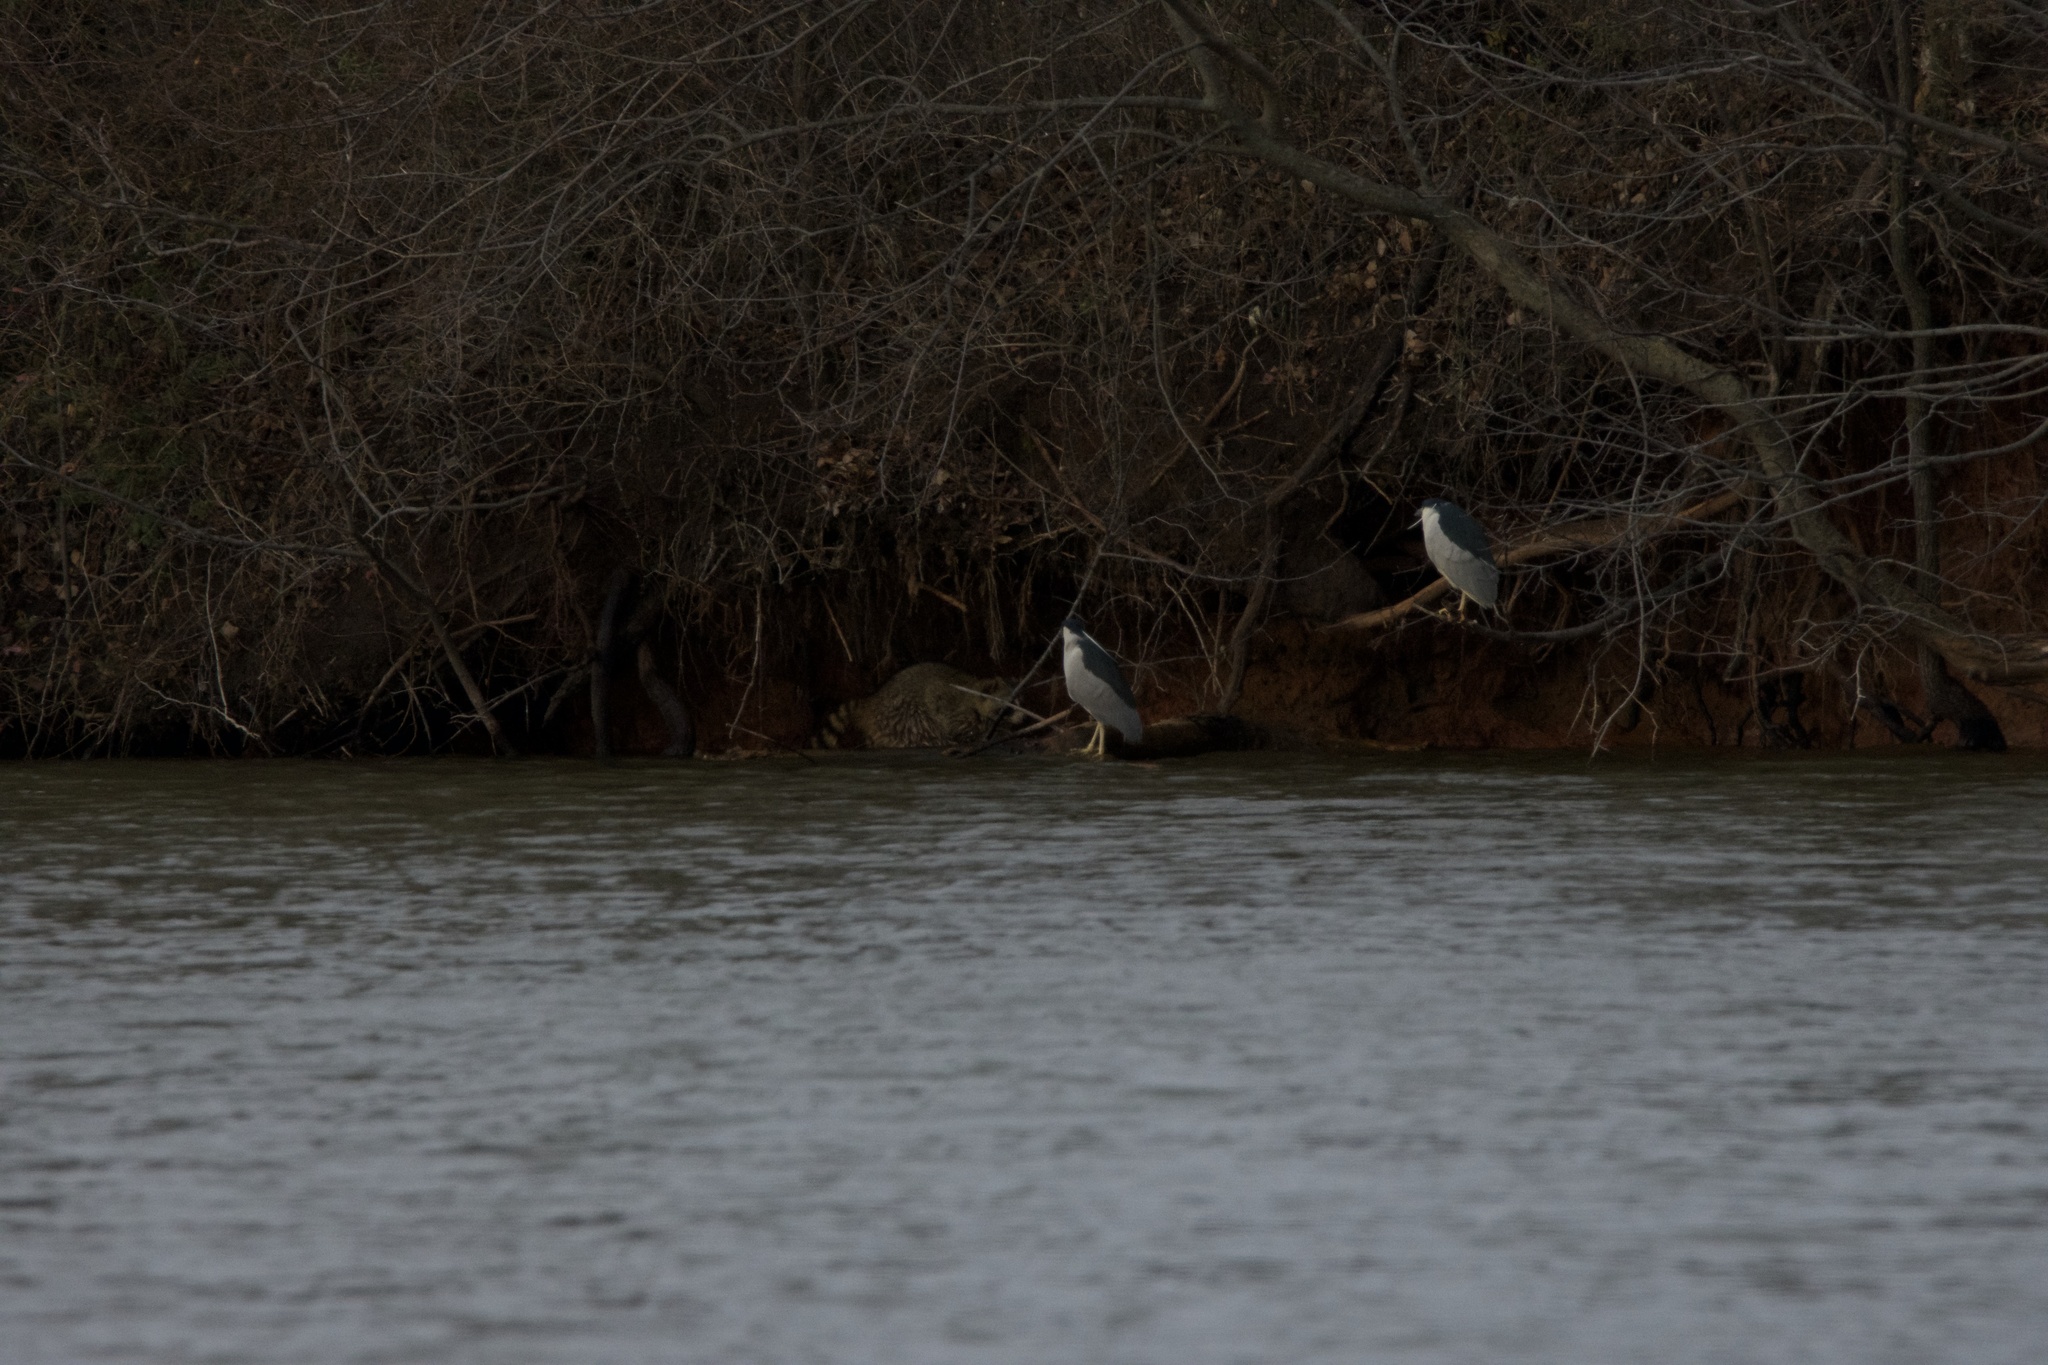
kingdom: Animalia
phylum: Chordata
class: Mammalia
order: Carnivora
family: Procyonidae
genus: Procyon
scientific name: Procyon lotor
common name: Raccoon
